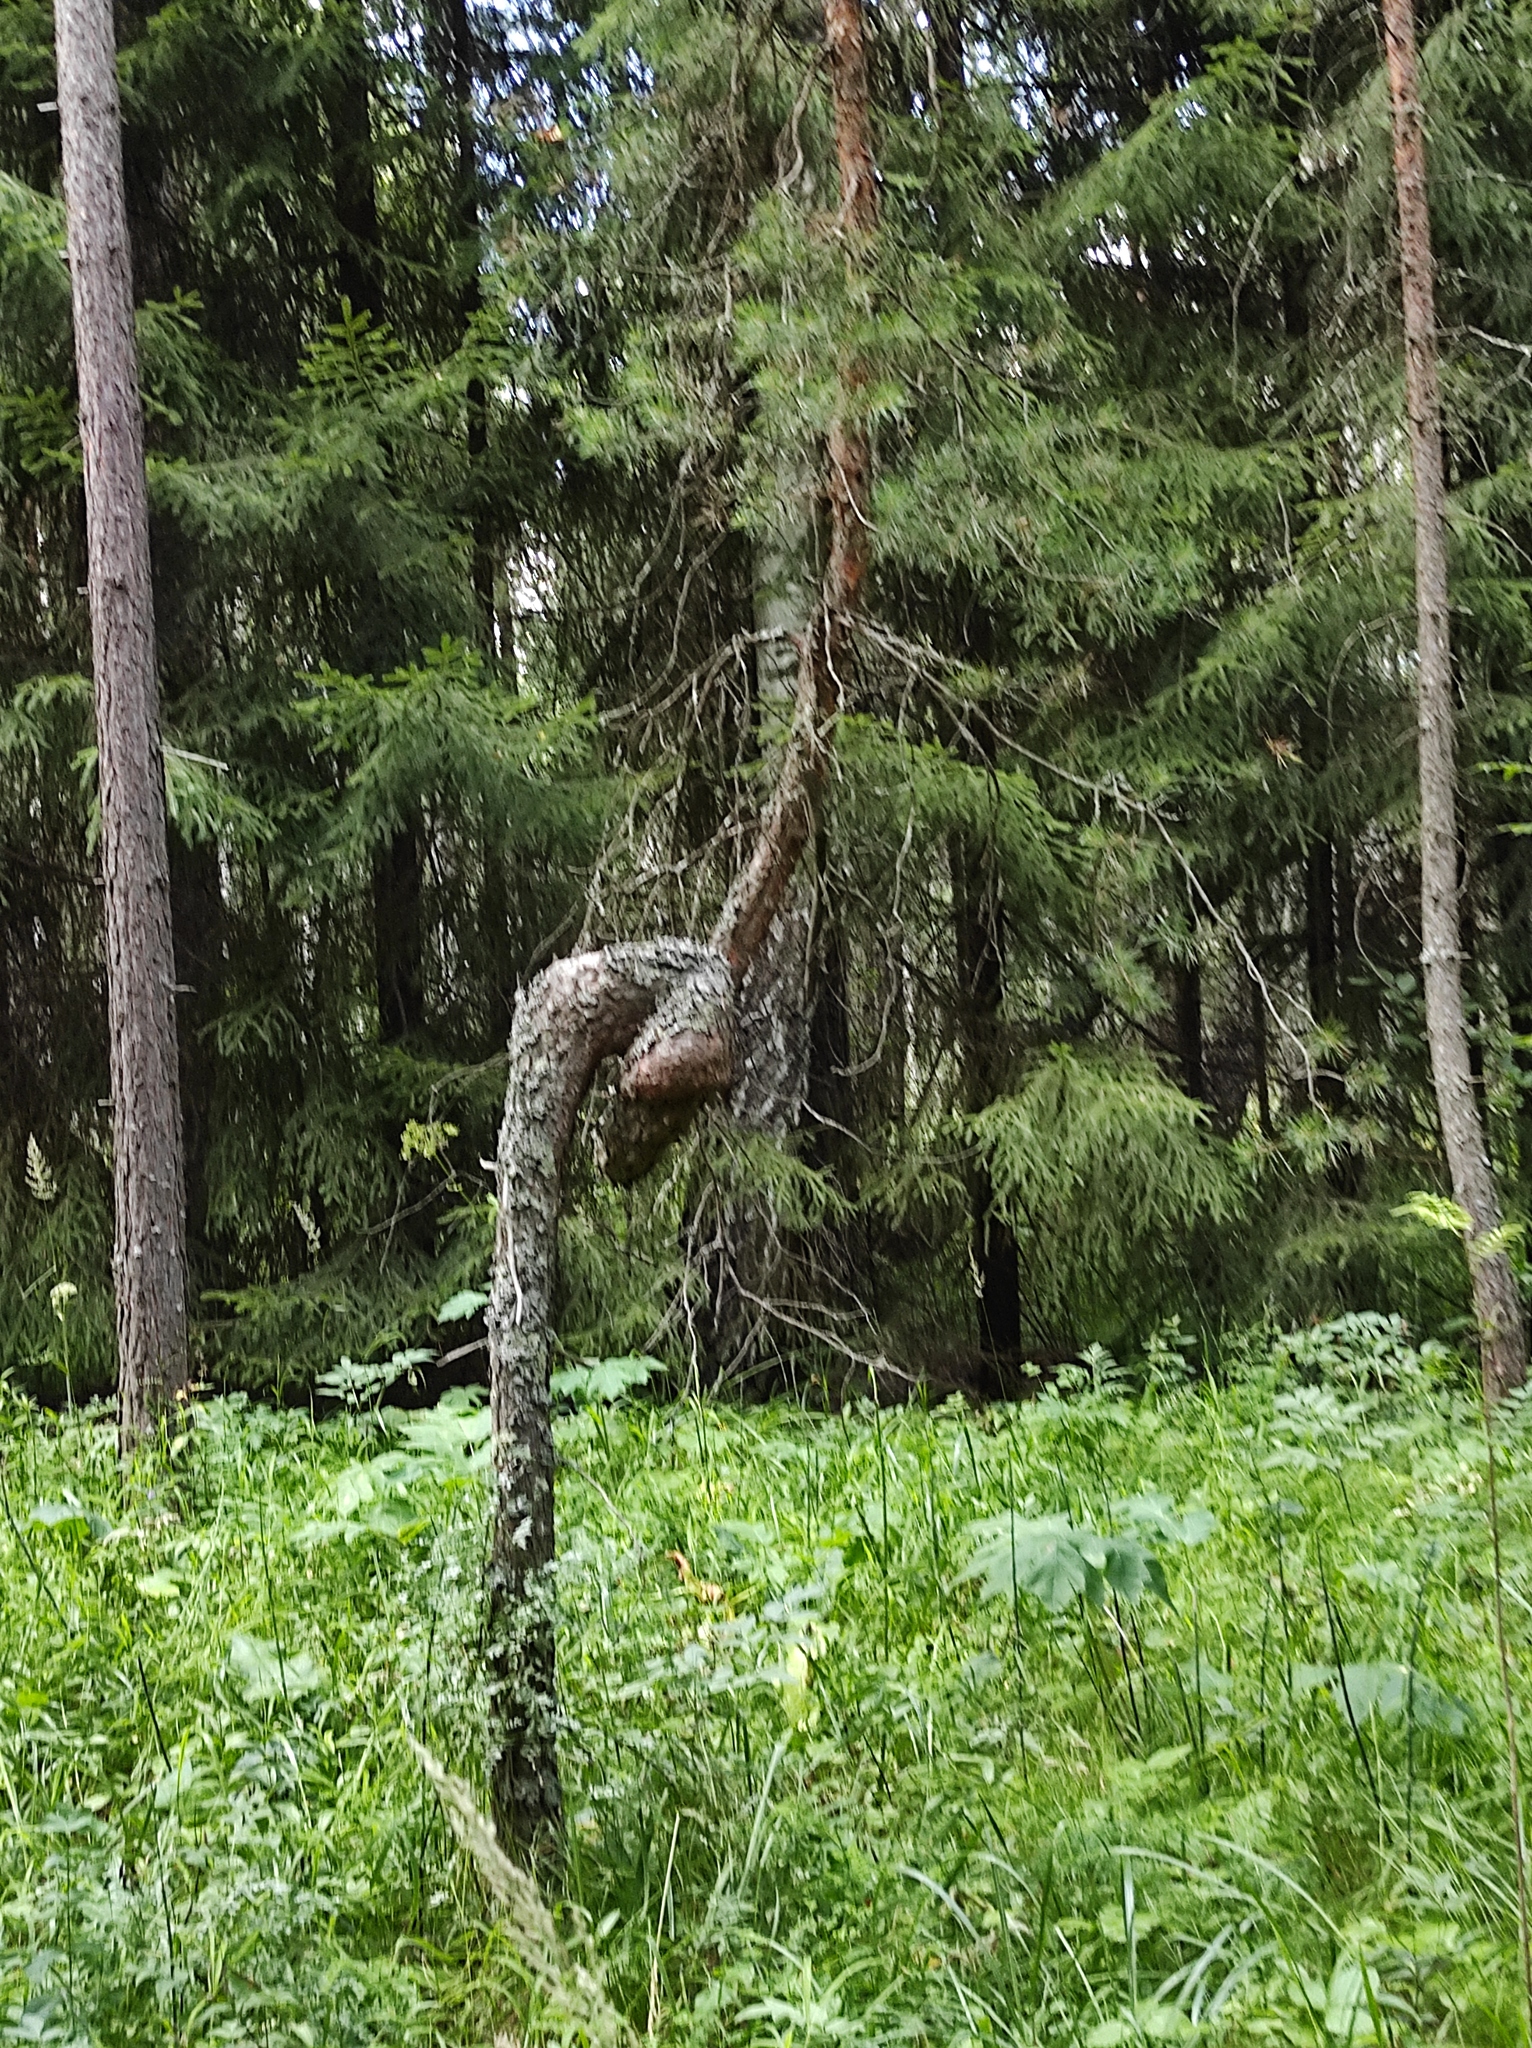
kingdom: Plantae
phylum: Tracheophyta
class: Pinopsida
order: Pinales
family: Pinaceae
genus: Pinus
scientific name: Pinus sylvestris
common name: Scots pine
